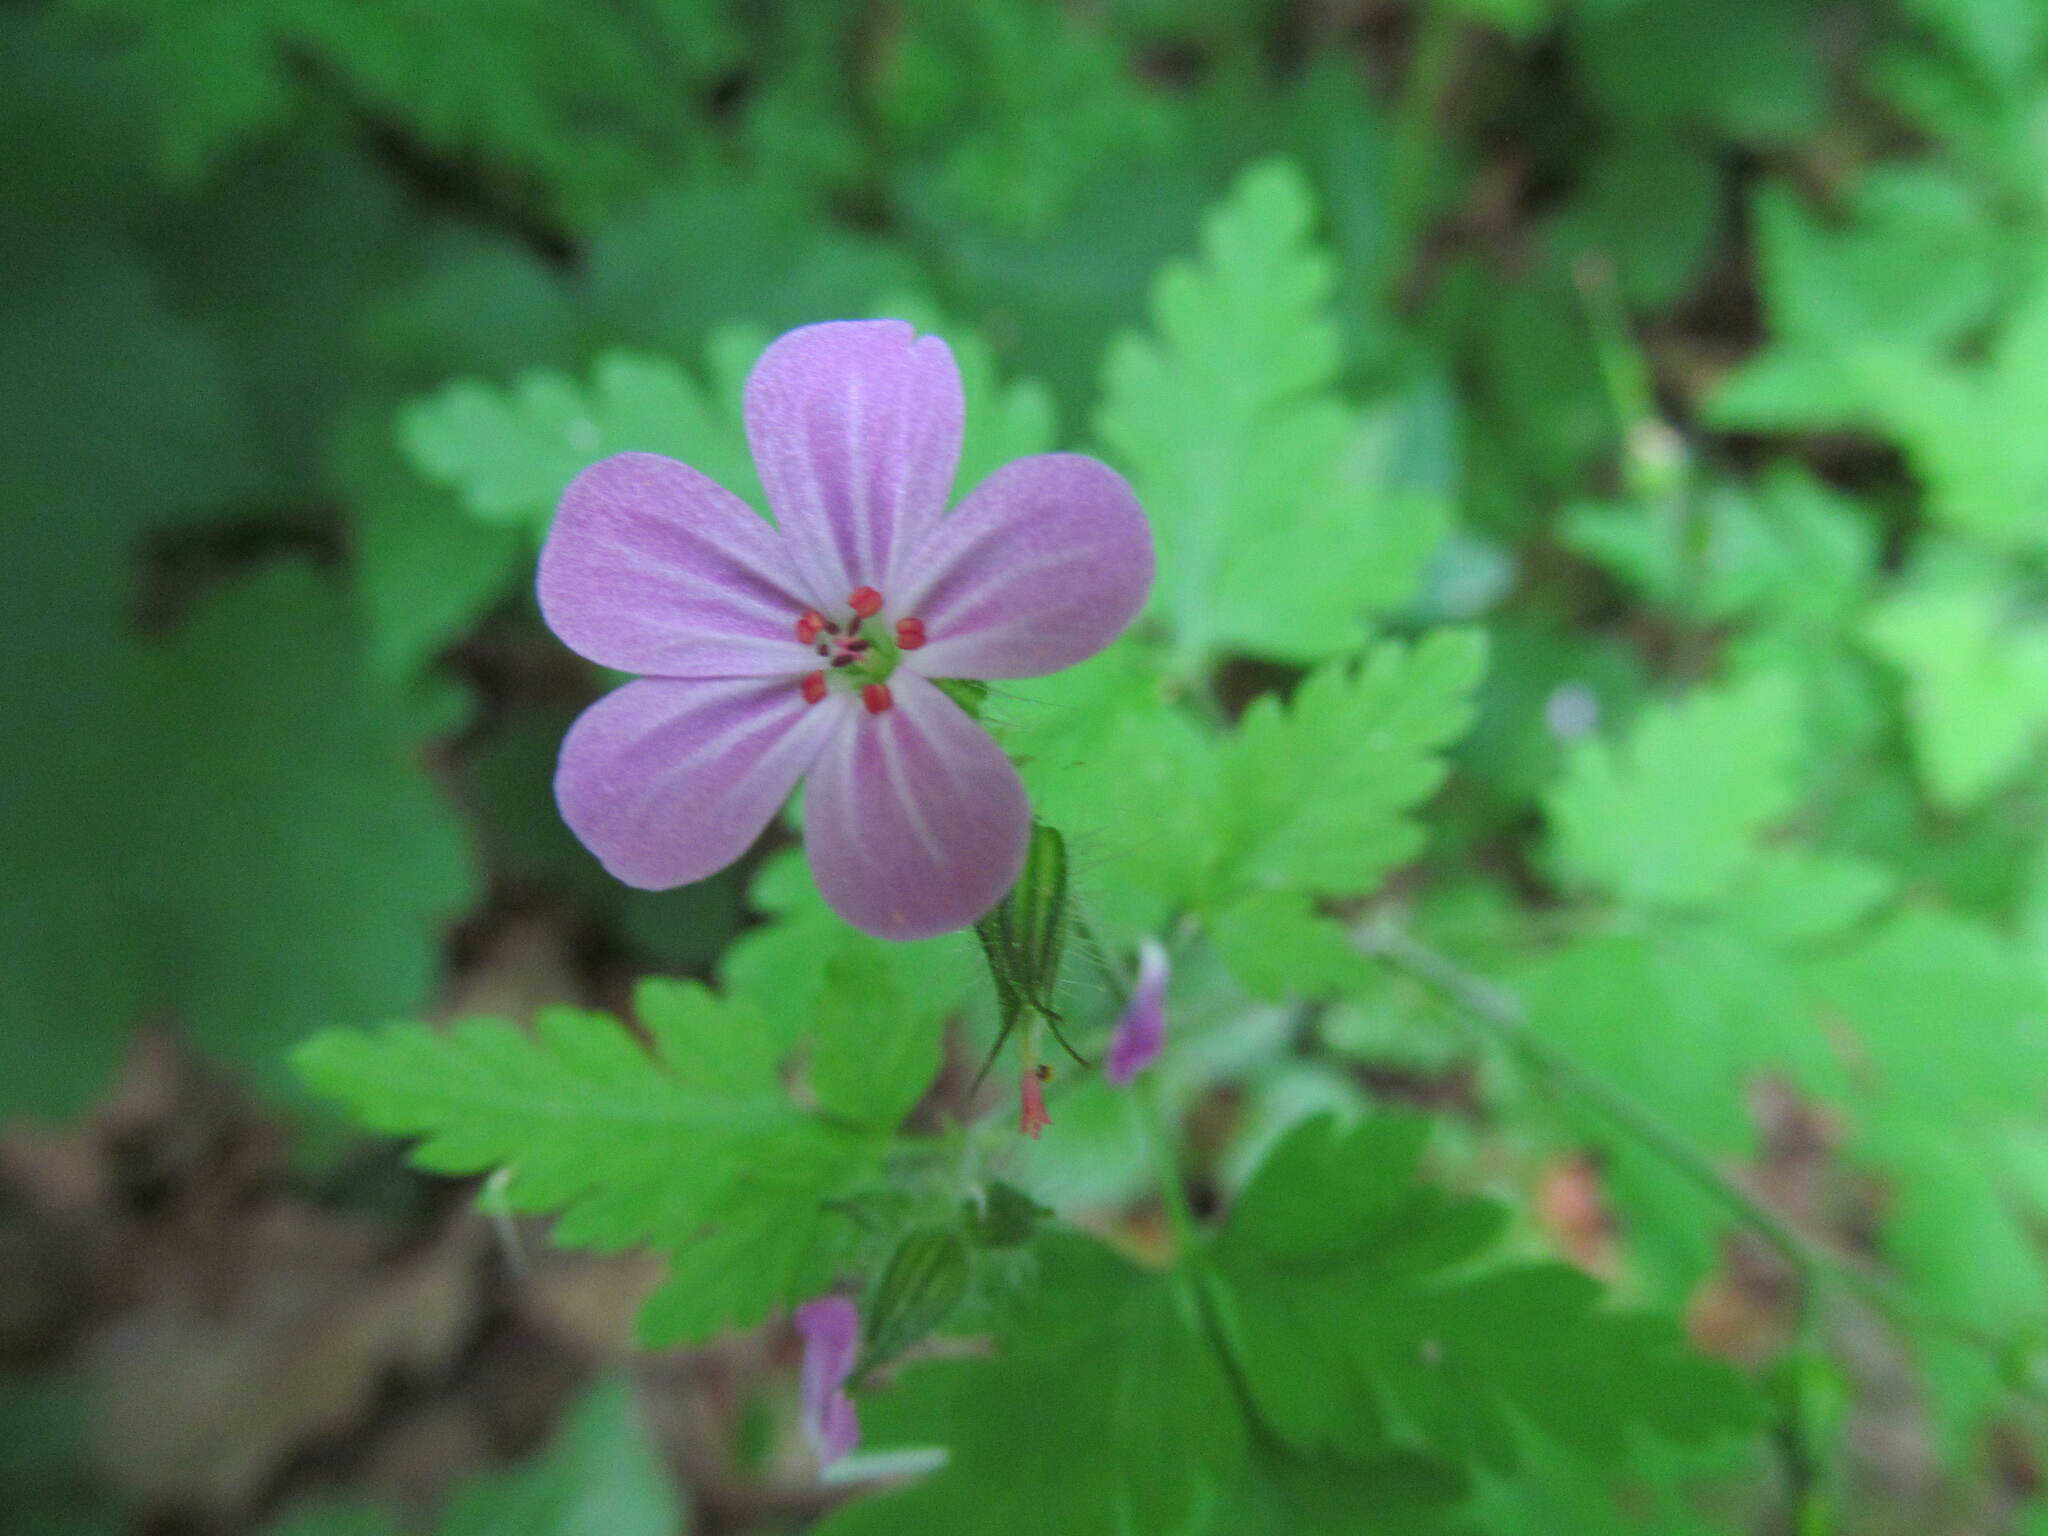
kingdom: Plantae
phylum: Tracheophyta
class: Magnoliopsida
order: Geraniales
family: Geraniaceae
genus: Geranium
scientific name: Geranium robertianum
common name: Herb-robert
